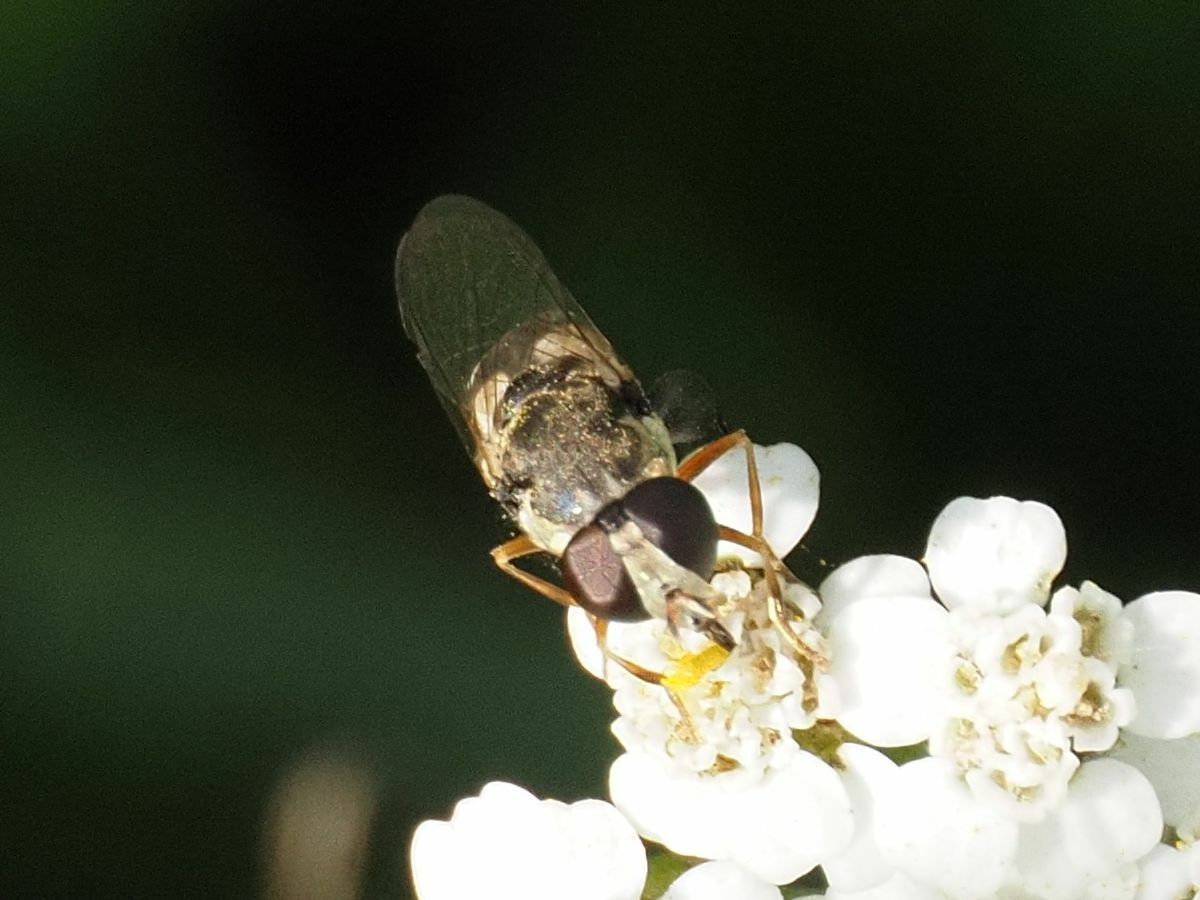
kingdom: Animalia
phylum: Arthropoda
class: Insecta
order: Diptera
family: Syrphidae
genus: Syritta
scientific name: Syritta pipiens
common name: Hover fly
